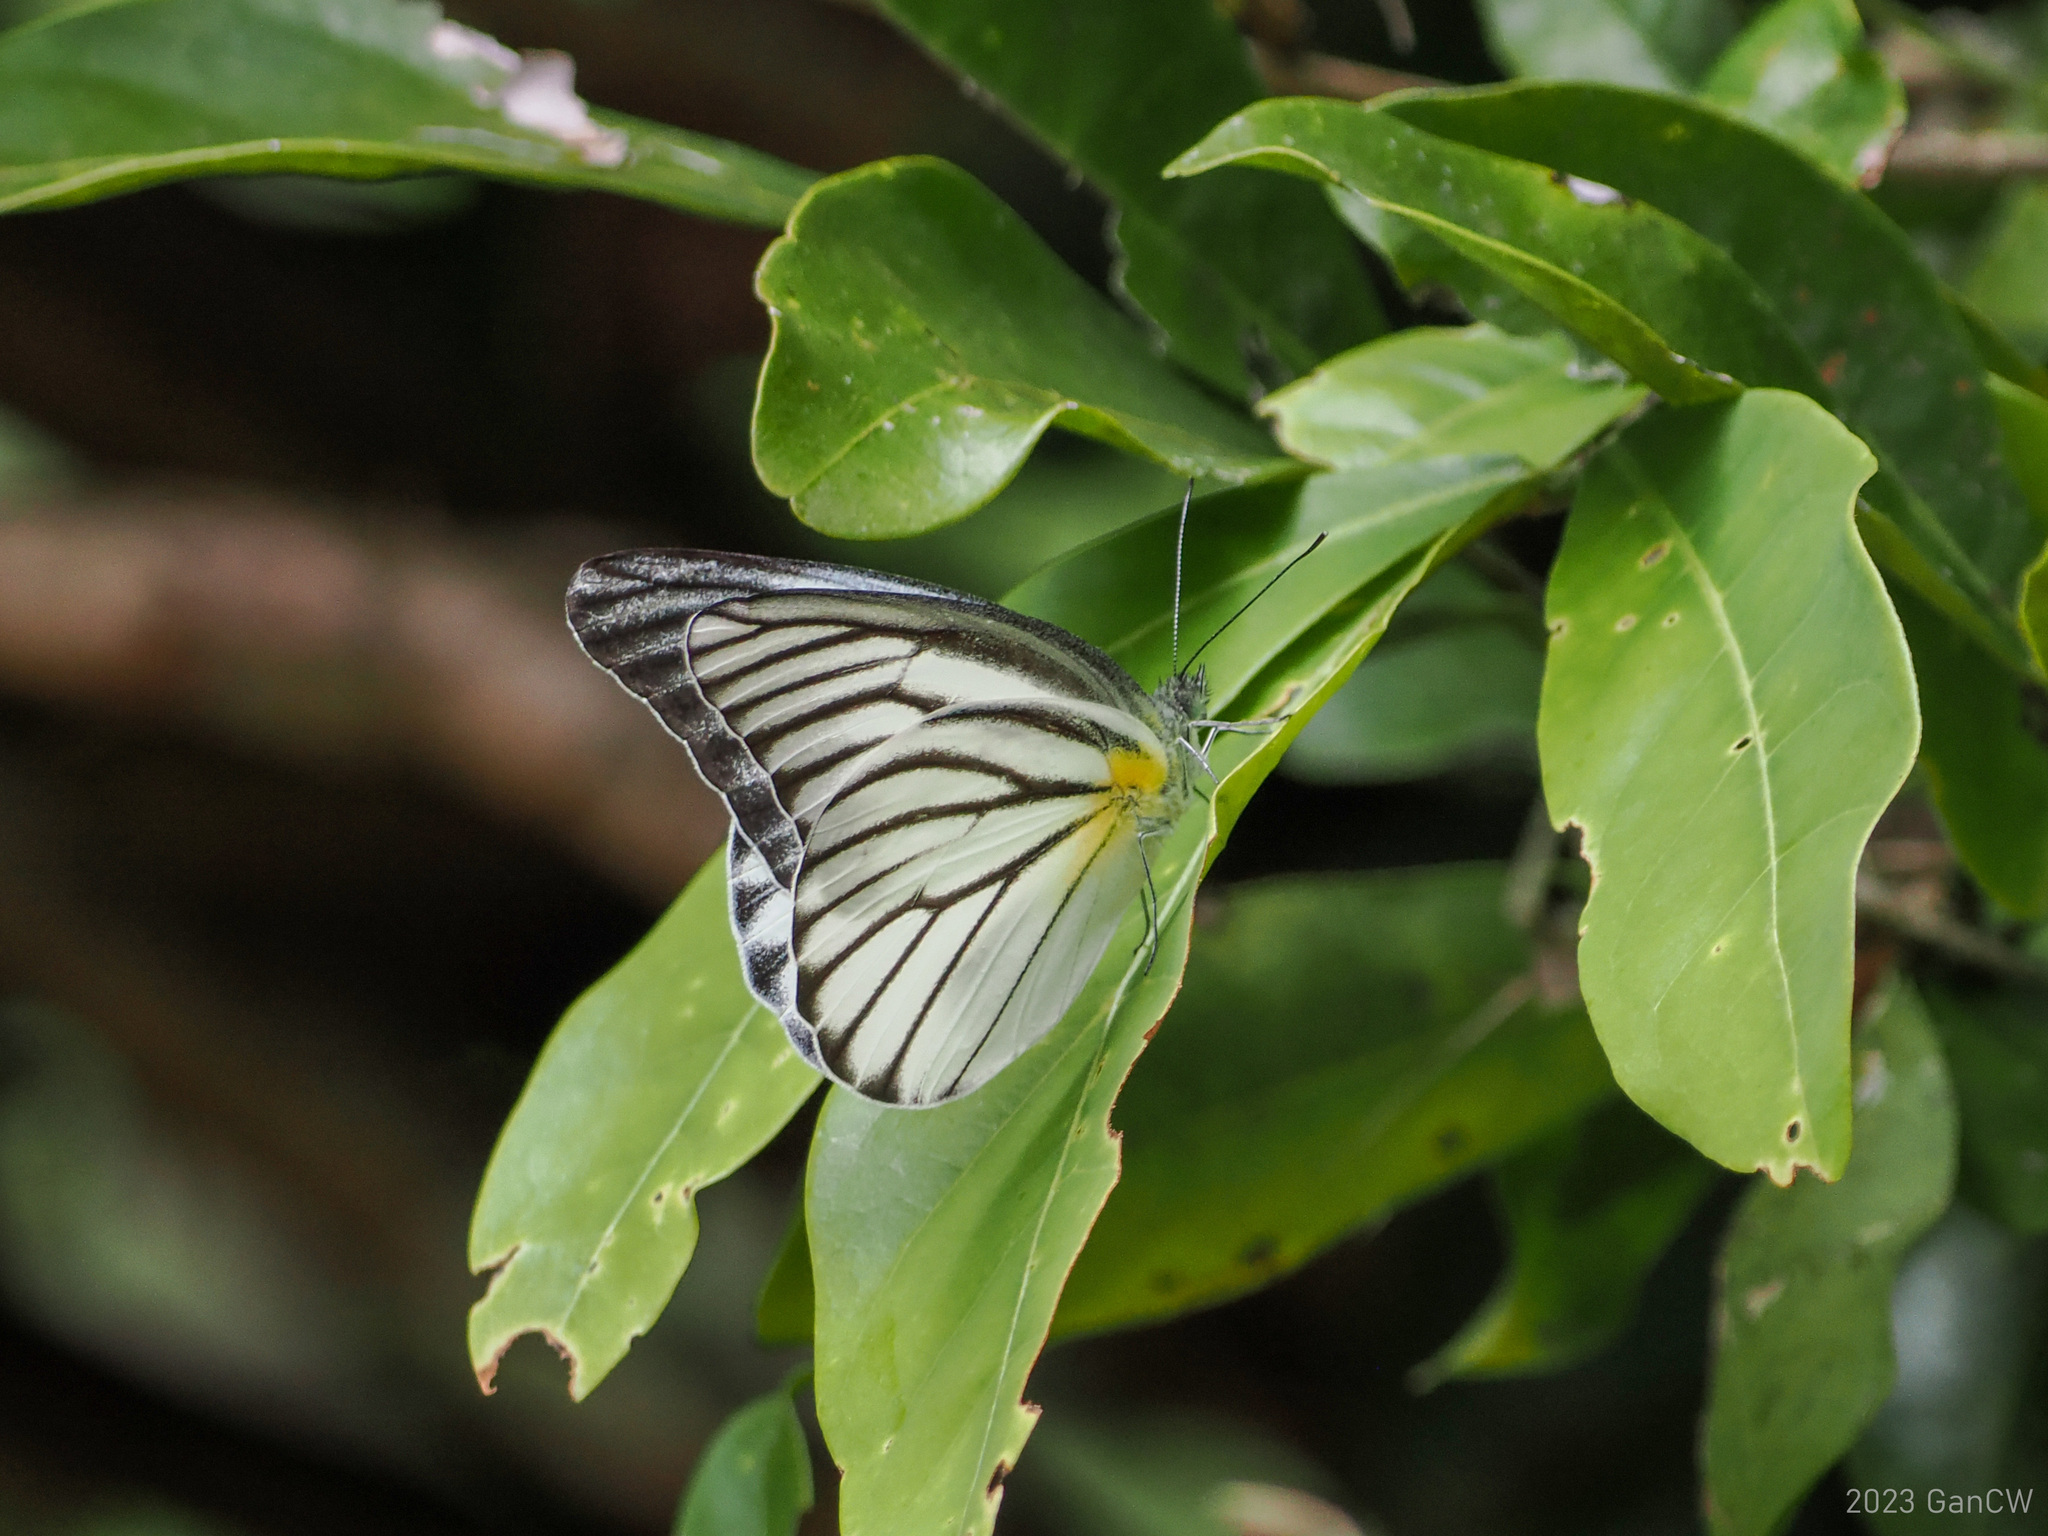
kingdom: Animalia
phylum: Arthropoda
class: Insecta
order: Lepidoptera
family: Pieridae
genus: Appias
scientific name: Appias hombroni
